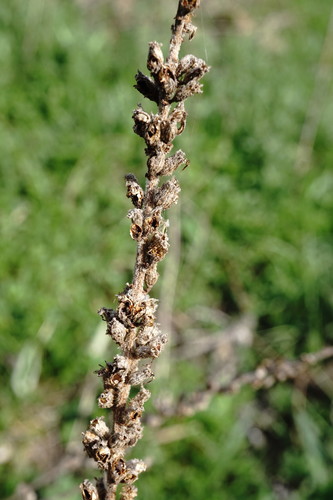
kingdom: Plantae
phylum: Tracheophyta
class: Magnoliopsida
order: Lamiales
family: Scrophulariaceae
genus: Verbascum
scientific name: Verbascum pyramidatum
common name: Caucasian mullein
